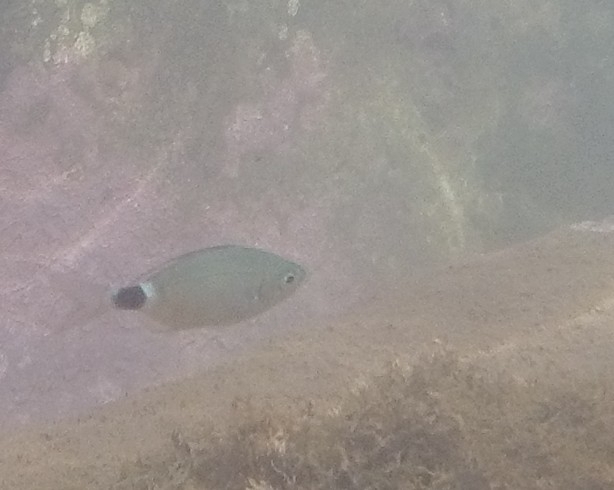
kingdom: Animalia
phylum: Chordata
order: Perciformes
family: Sparidae
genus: Oblada
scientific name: Oblada melanura
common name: Saddled seabream
